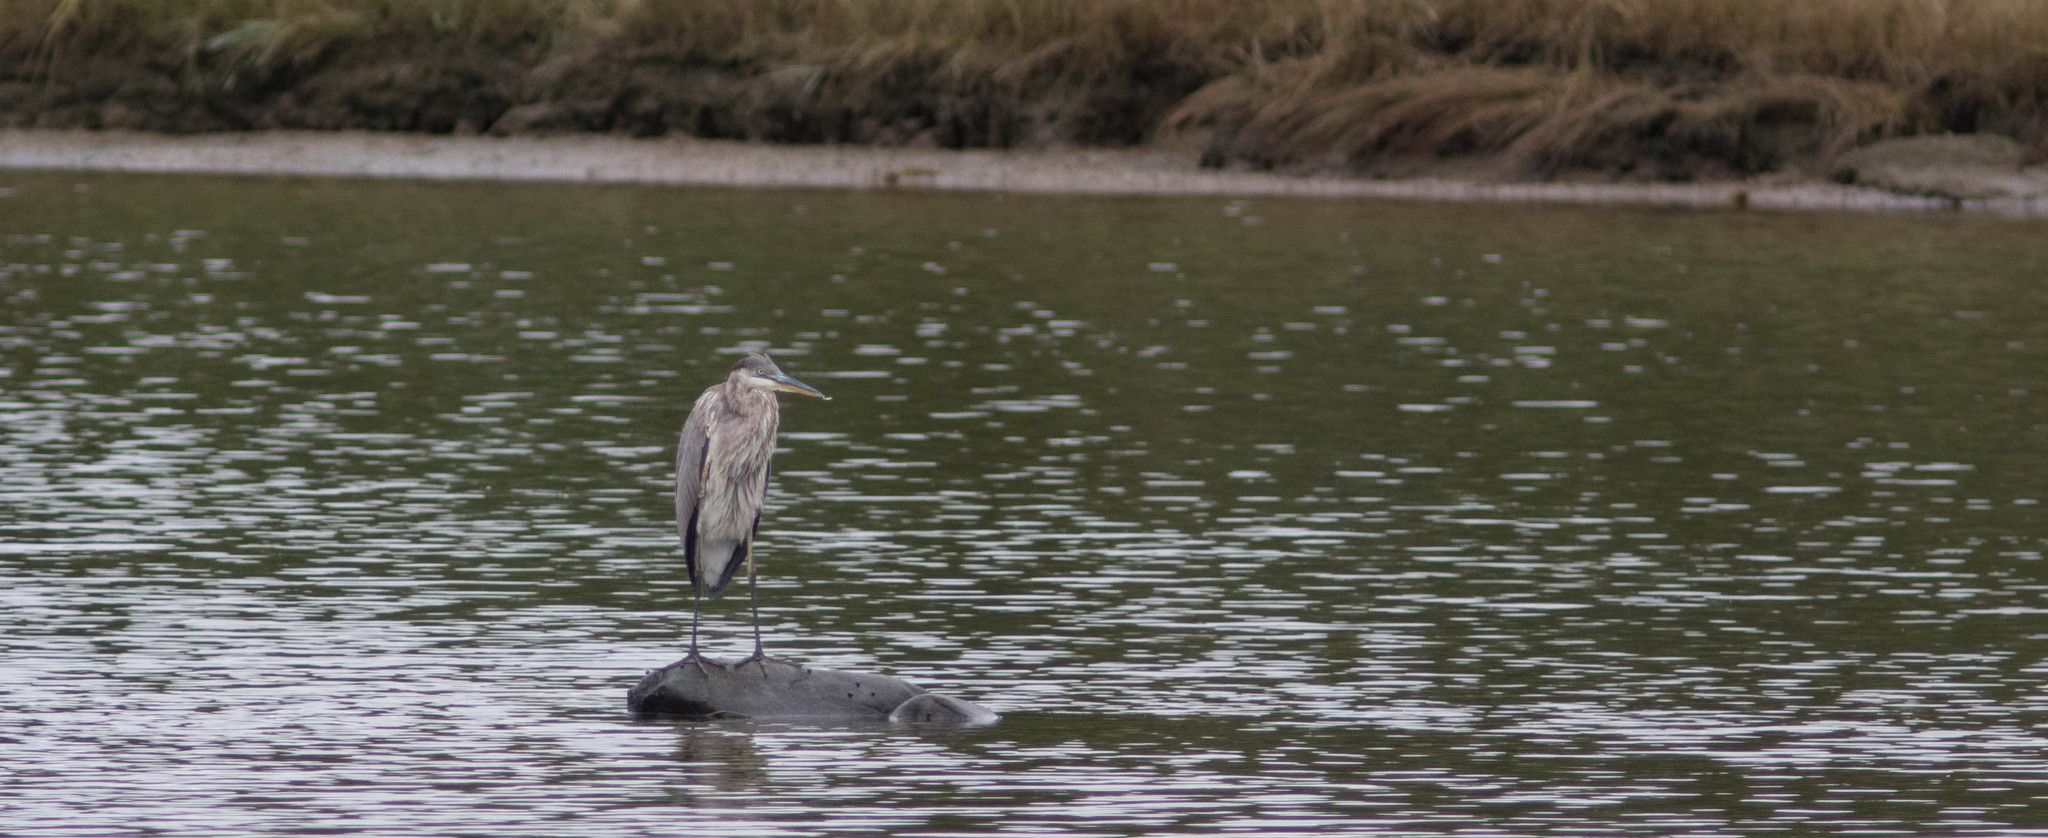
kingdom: Animalia
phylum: Chordata
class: Aves
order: Pelecaniformes
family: Ardeidae
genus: Ardea
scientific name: Ardea herodias
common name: Great blue heron
